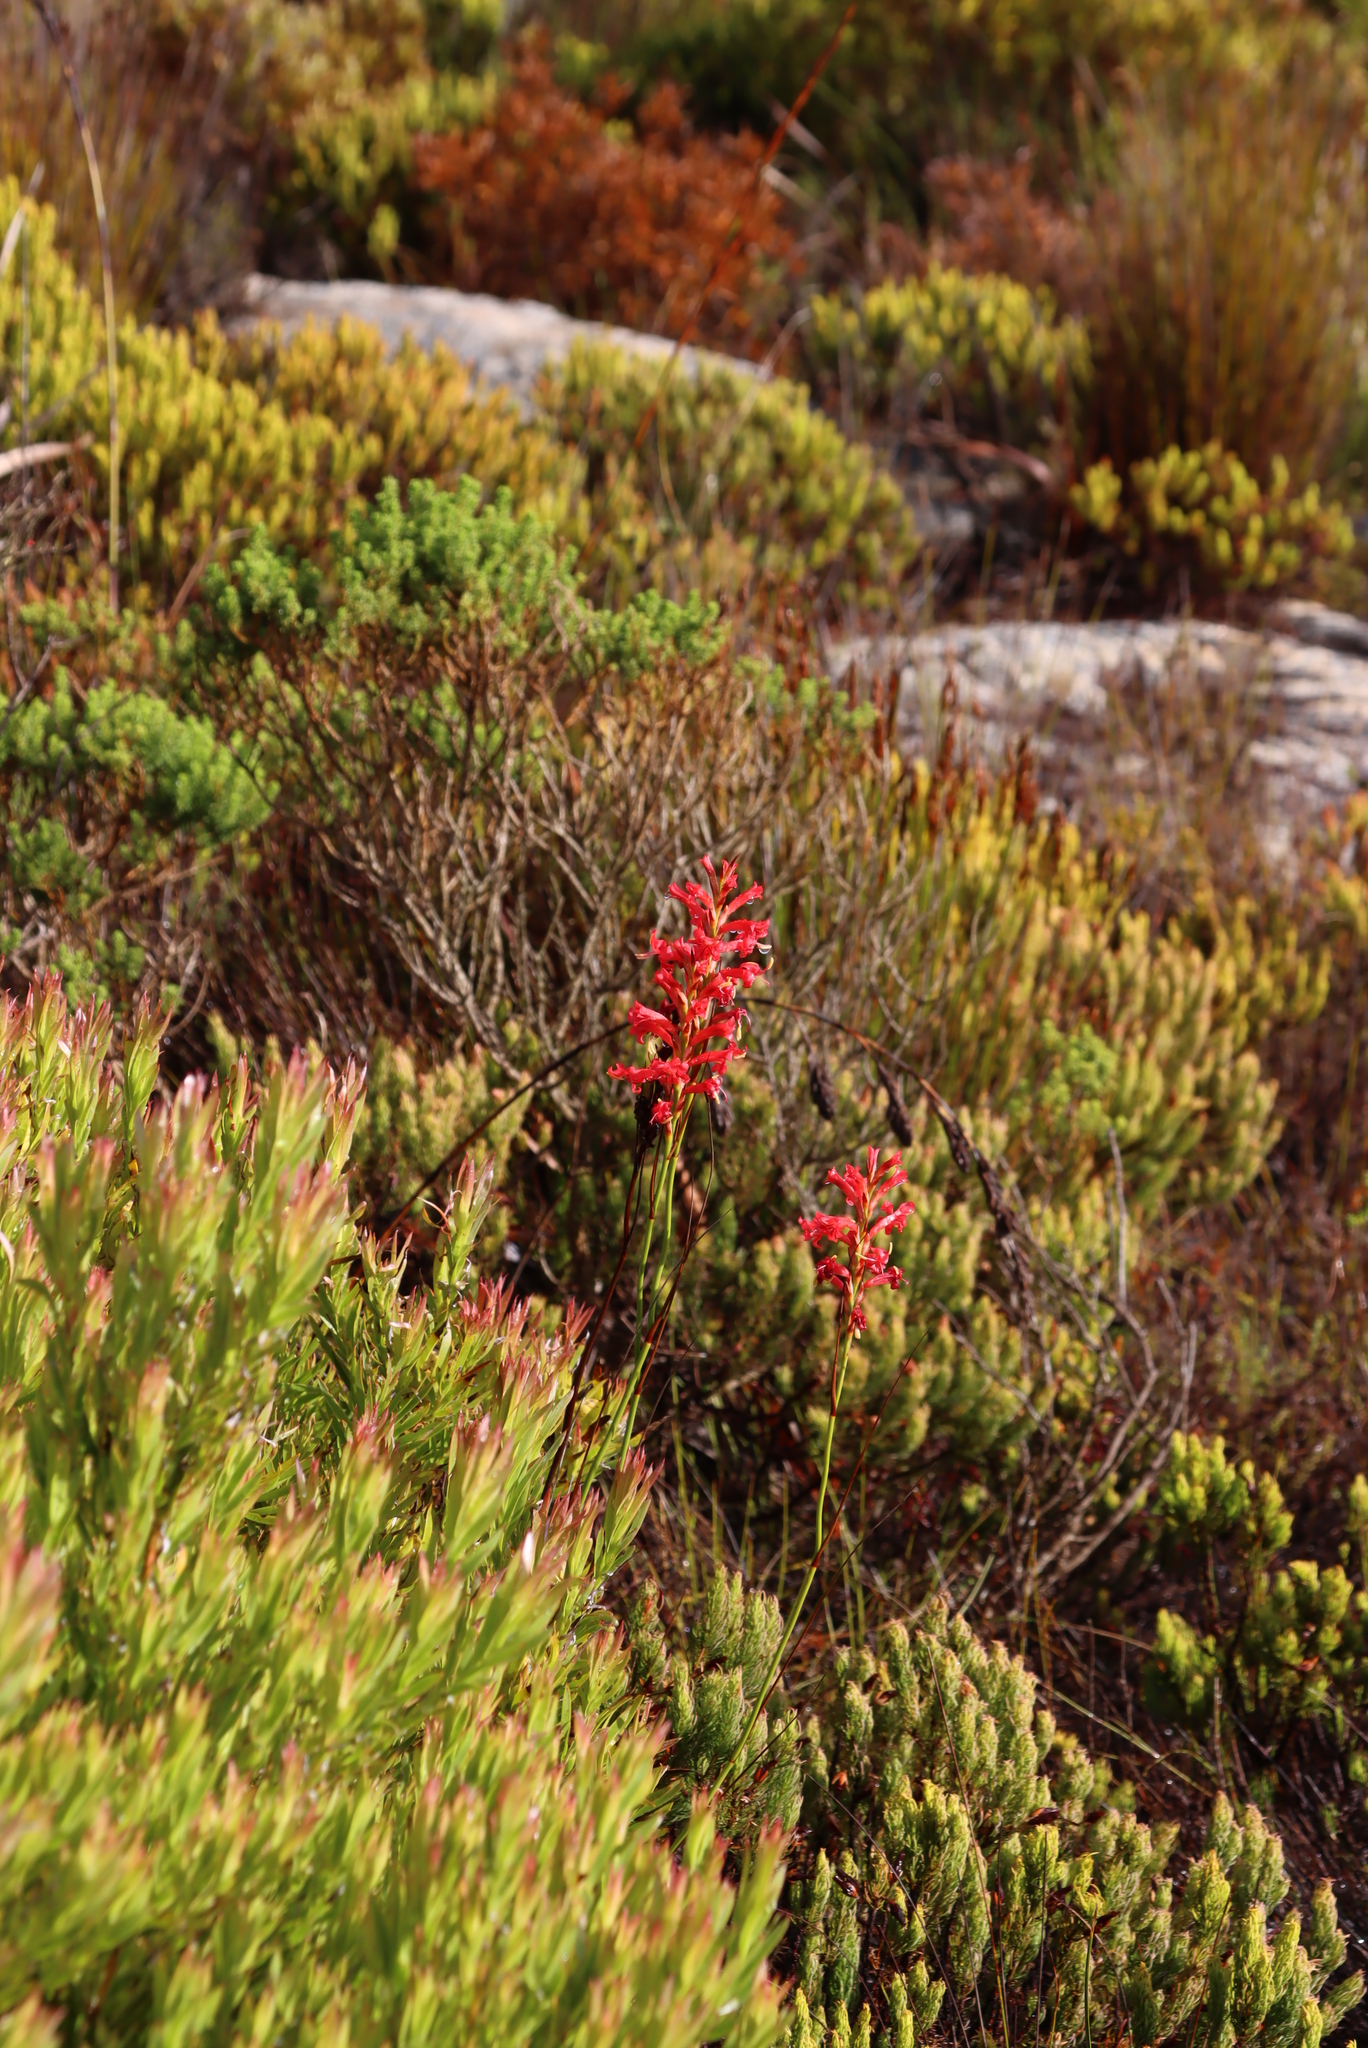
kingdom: Plantae
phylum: Tracheophyta
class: Liliopsida
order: Asparagales
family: Iridaceae
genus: Tritoniopsis
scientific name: Tritoniopsis triticea
